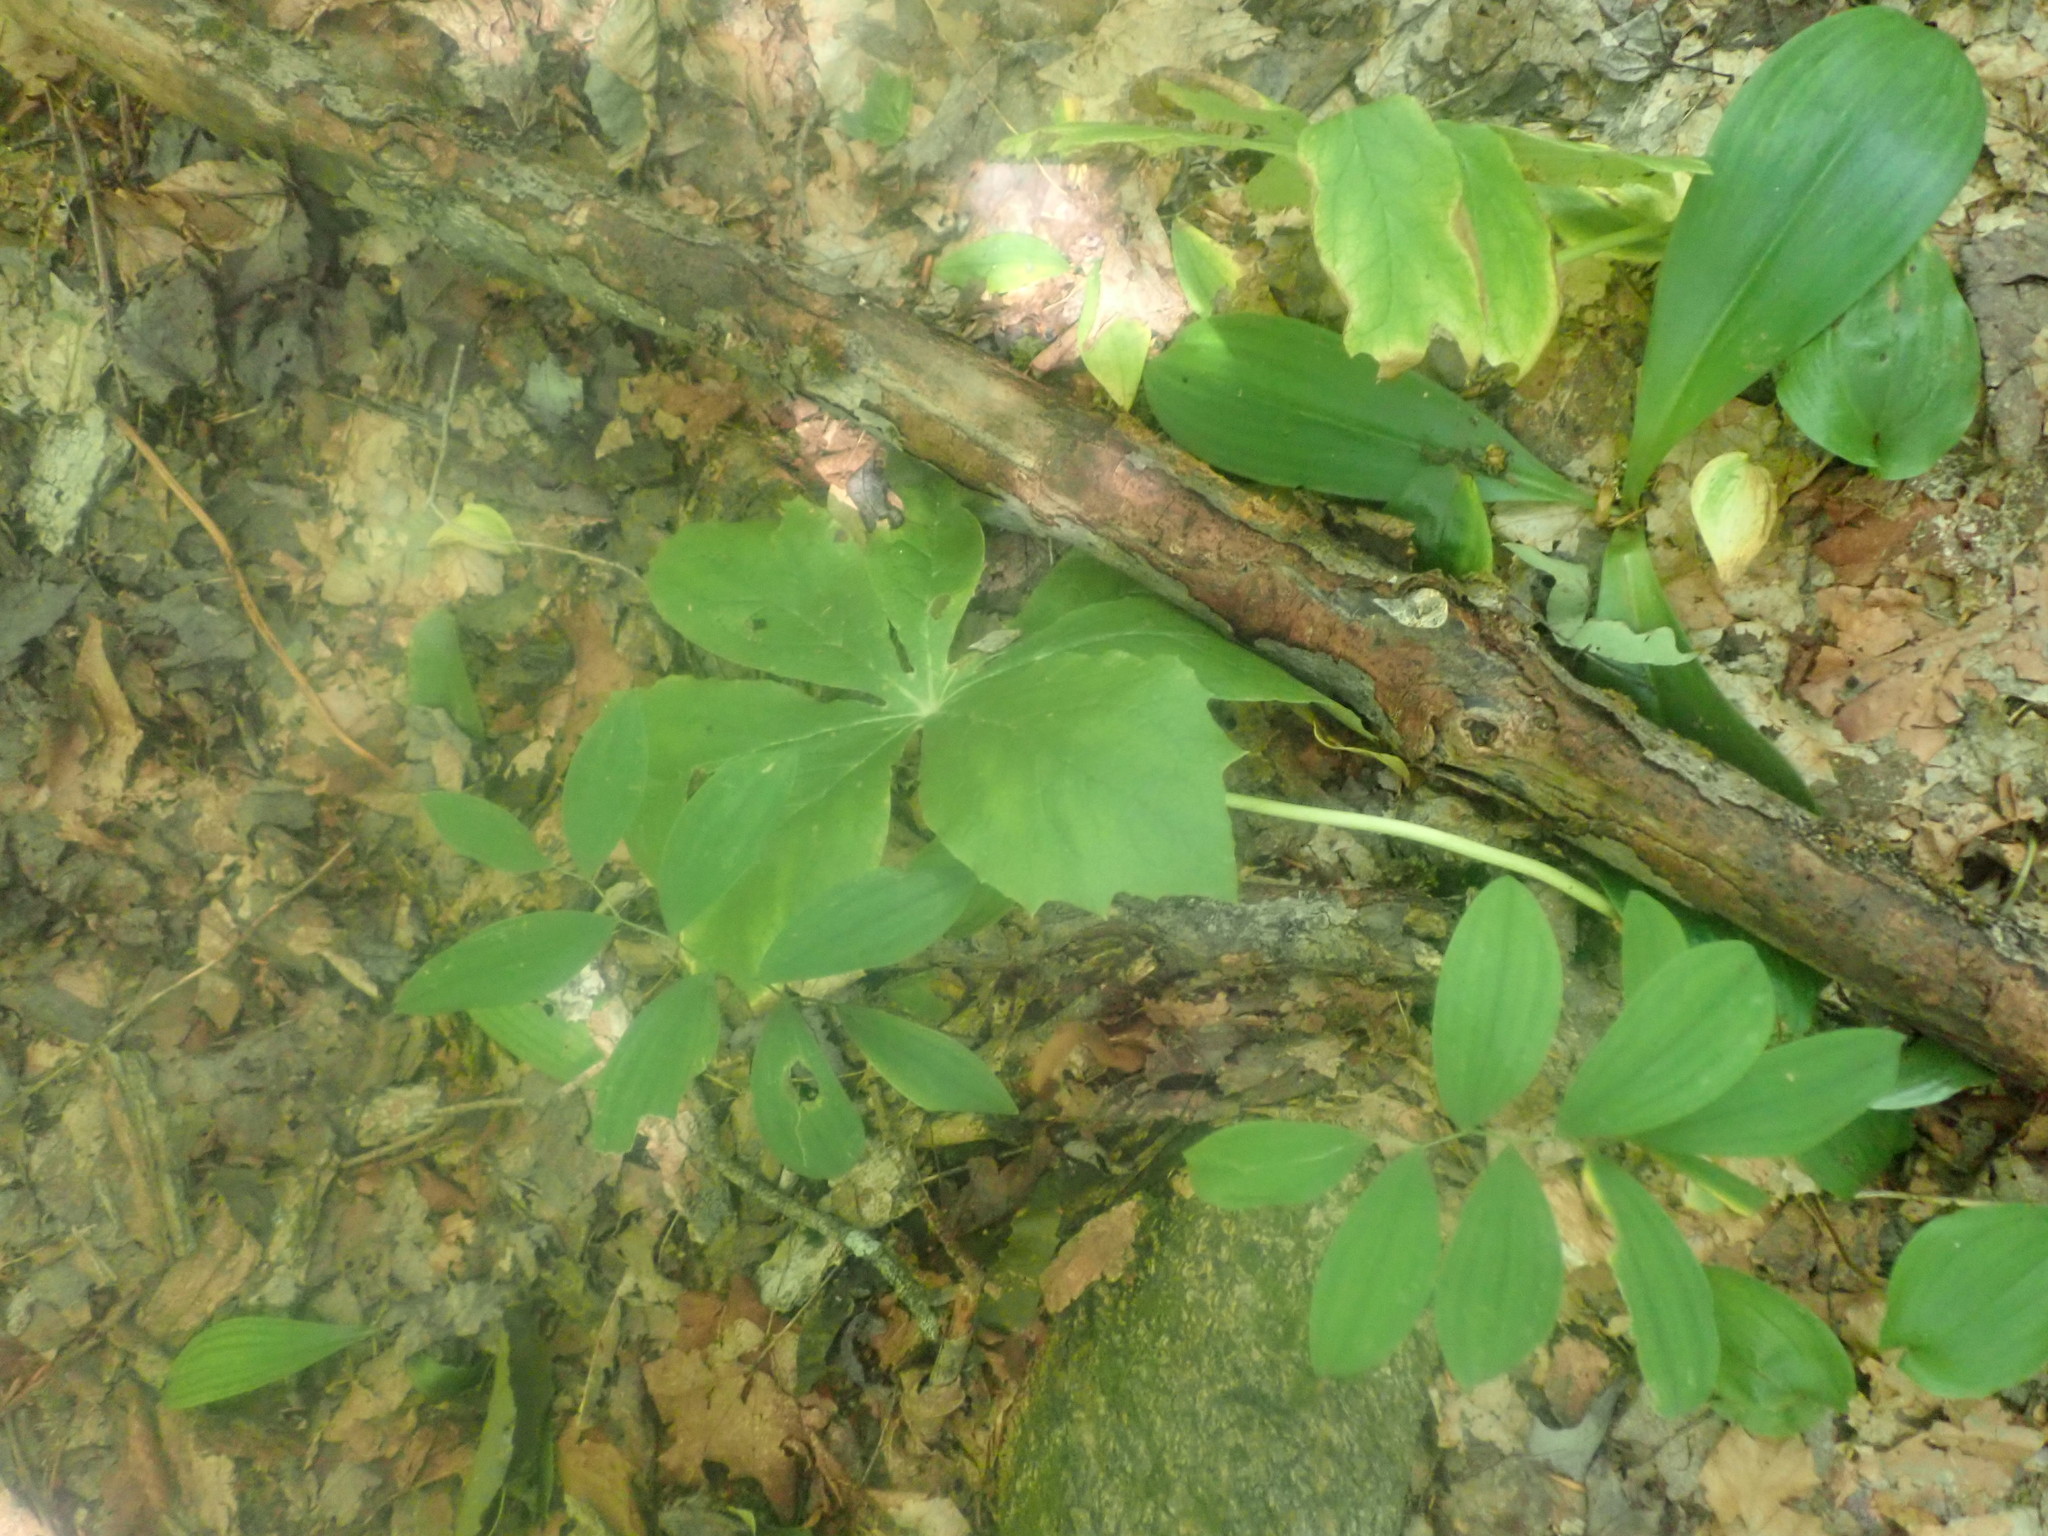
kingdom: Plantae
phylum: Tracheophyta
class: Magnoliopsida
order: Ranunculales
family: Berberidaceae
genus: Podophyllum
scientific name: Podophyllum peltatum
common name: Wild mandrake
